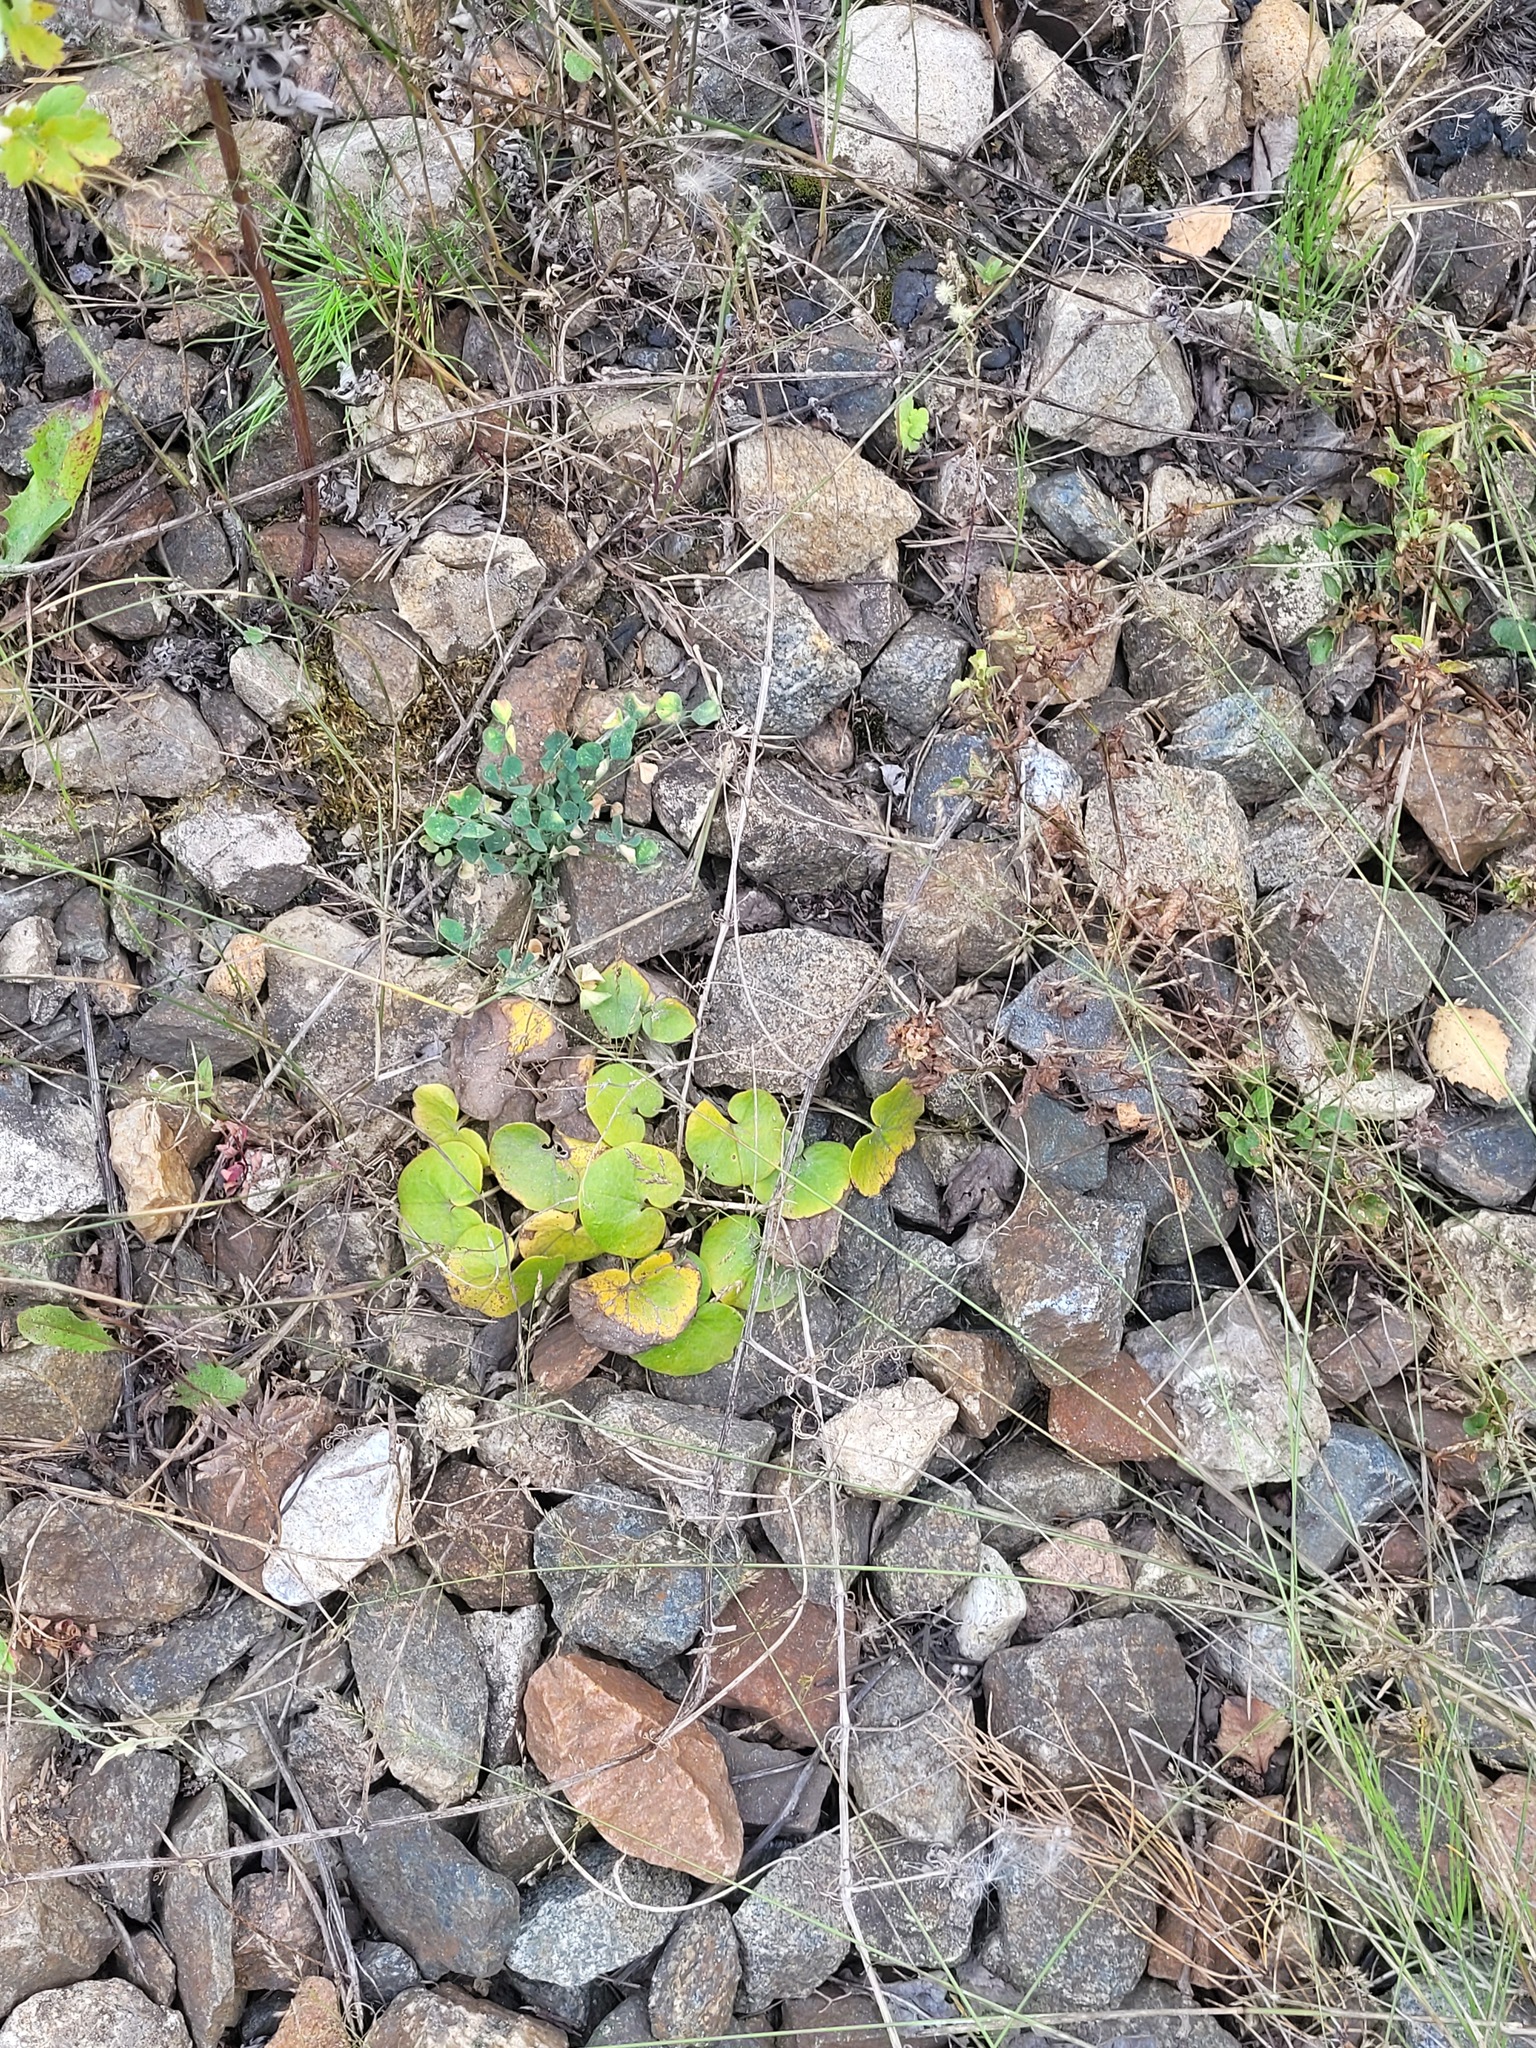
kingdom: Plantae
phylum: Tracheophyta
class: Magnoliopsida
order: Piperales
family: Aristolochiaceae
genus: Asarum
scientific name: Asarum europaeum
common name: Asarabacca
